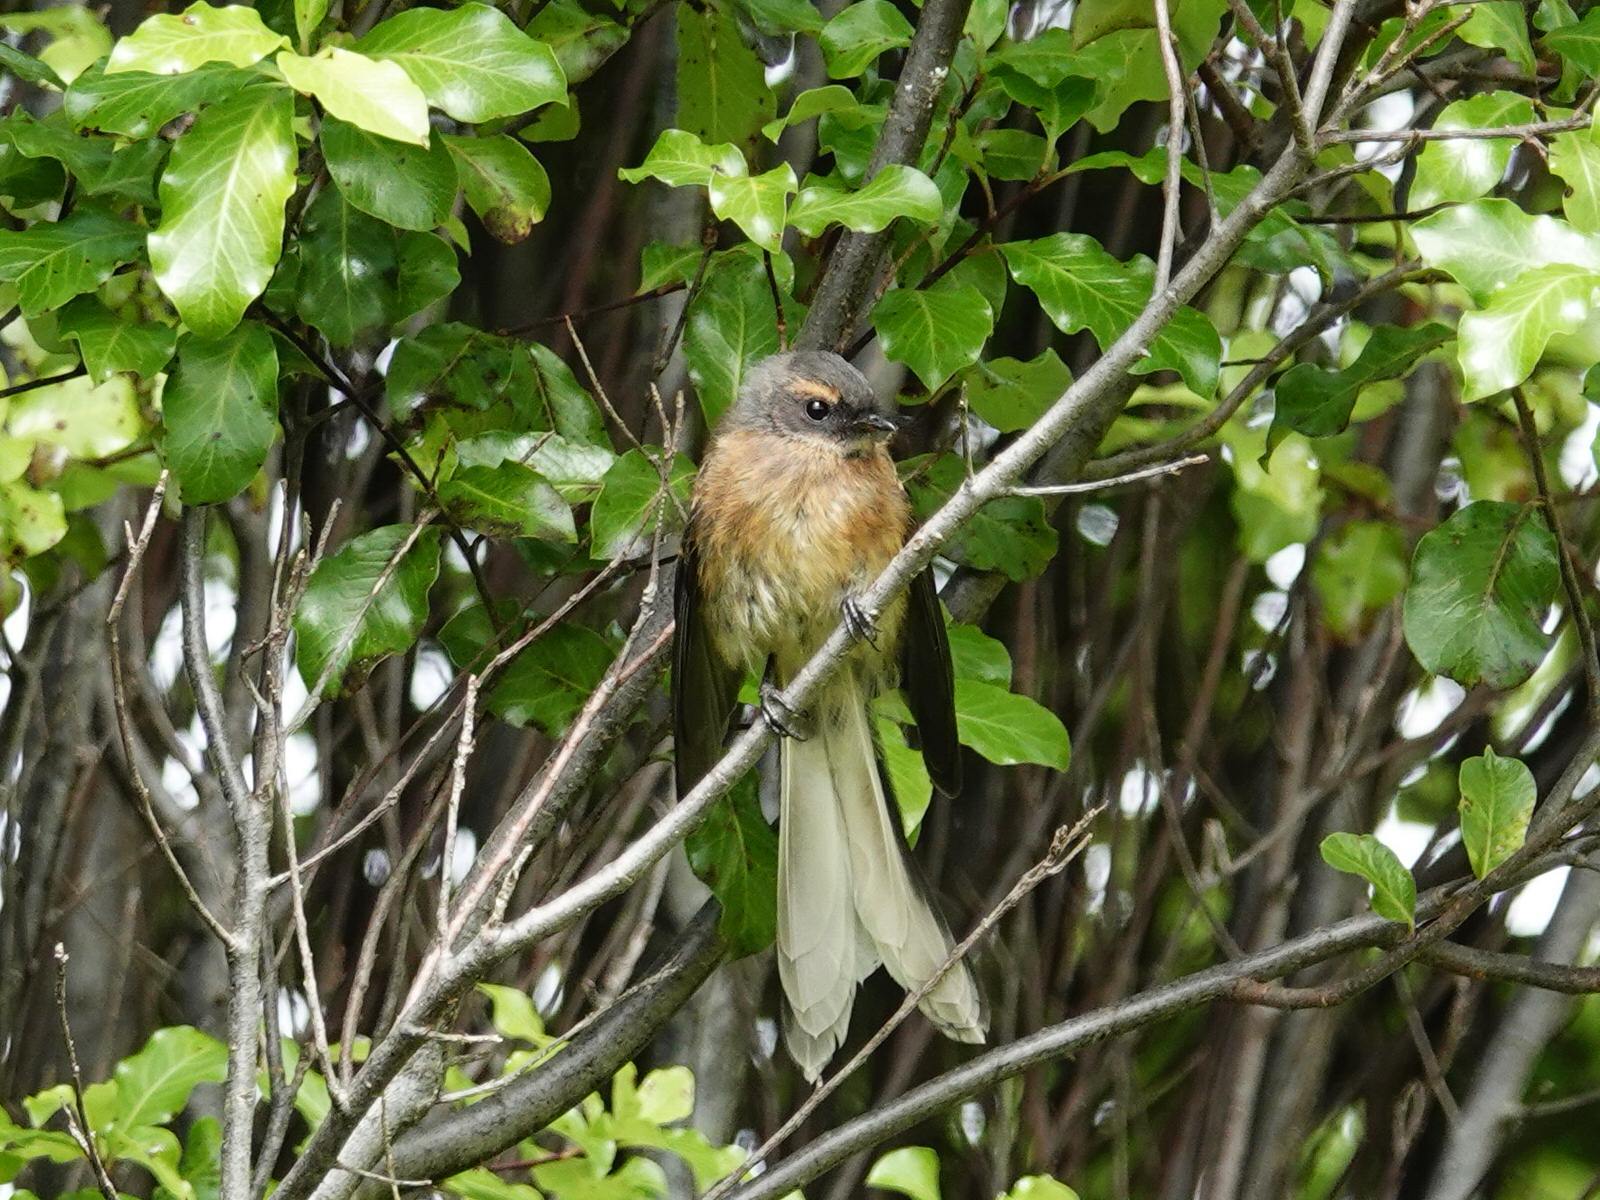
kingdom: Animalia
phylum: Chordata
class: Aves
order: Passeriformes
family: Rhipiduridae
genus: Rhipidura
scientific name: Rhipidura fuliginosa
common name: New zealand fantail
